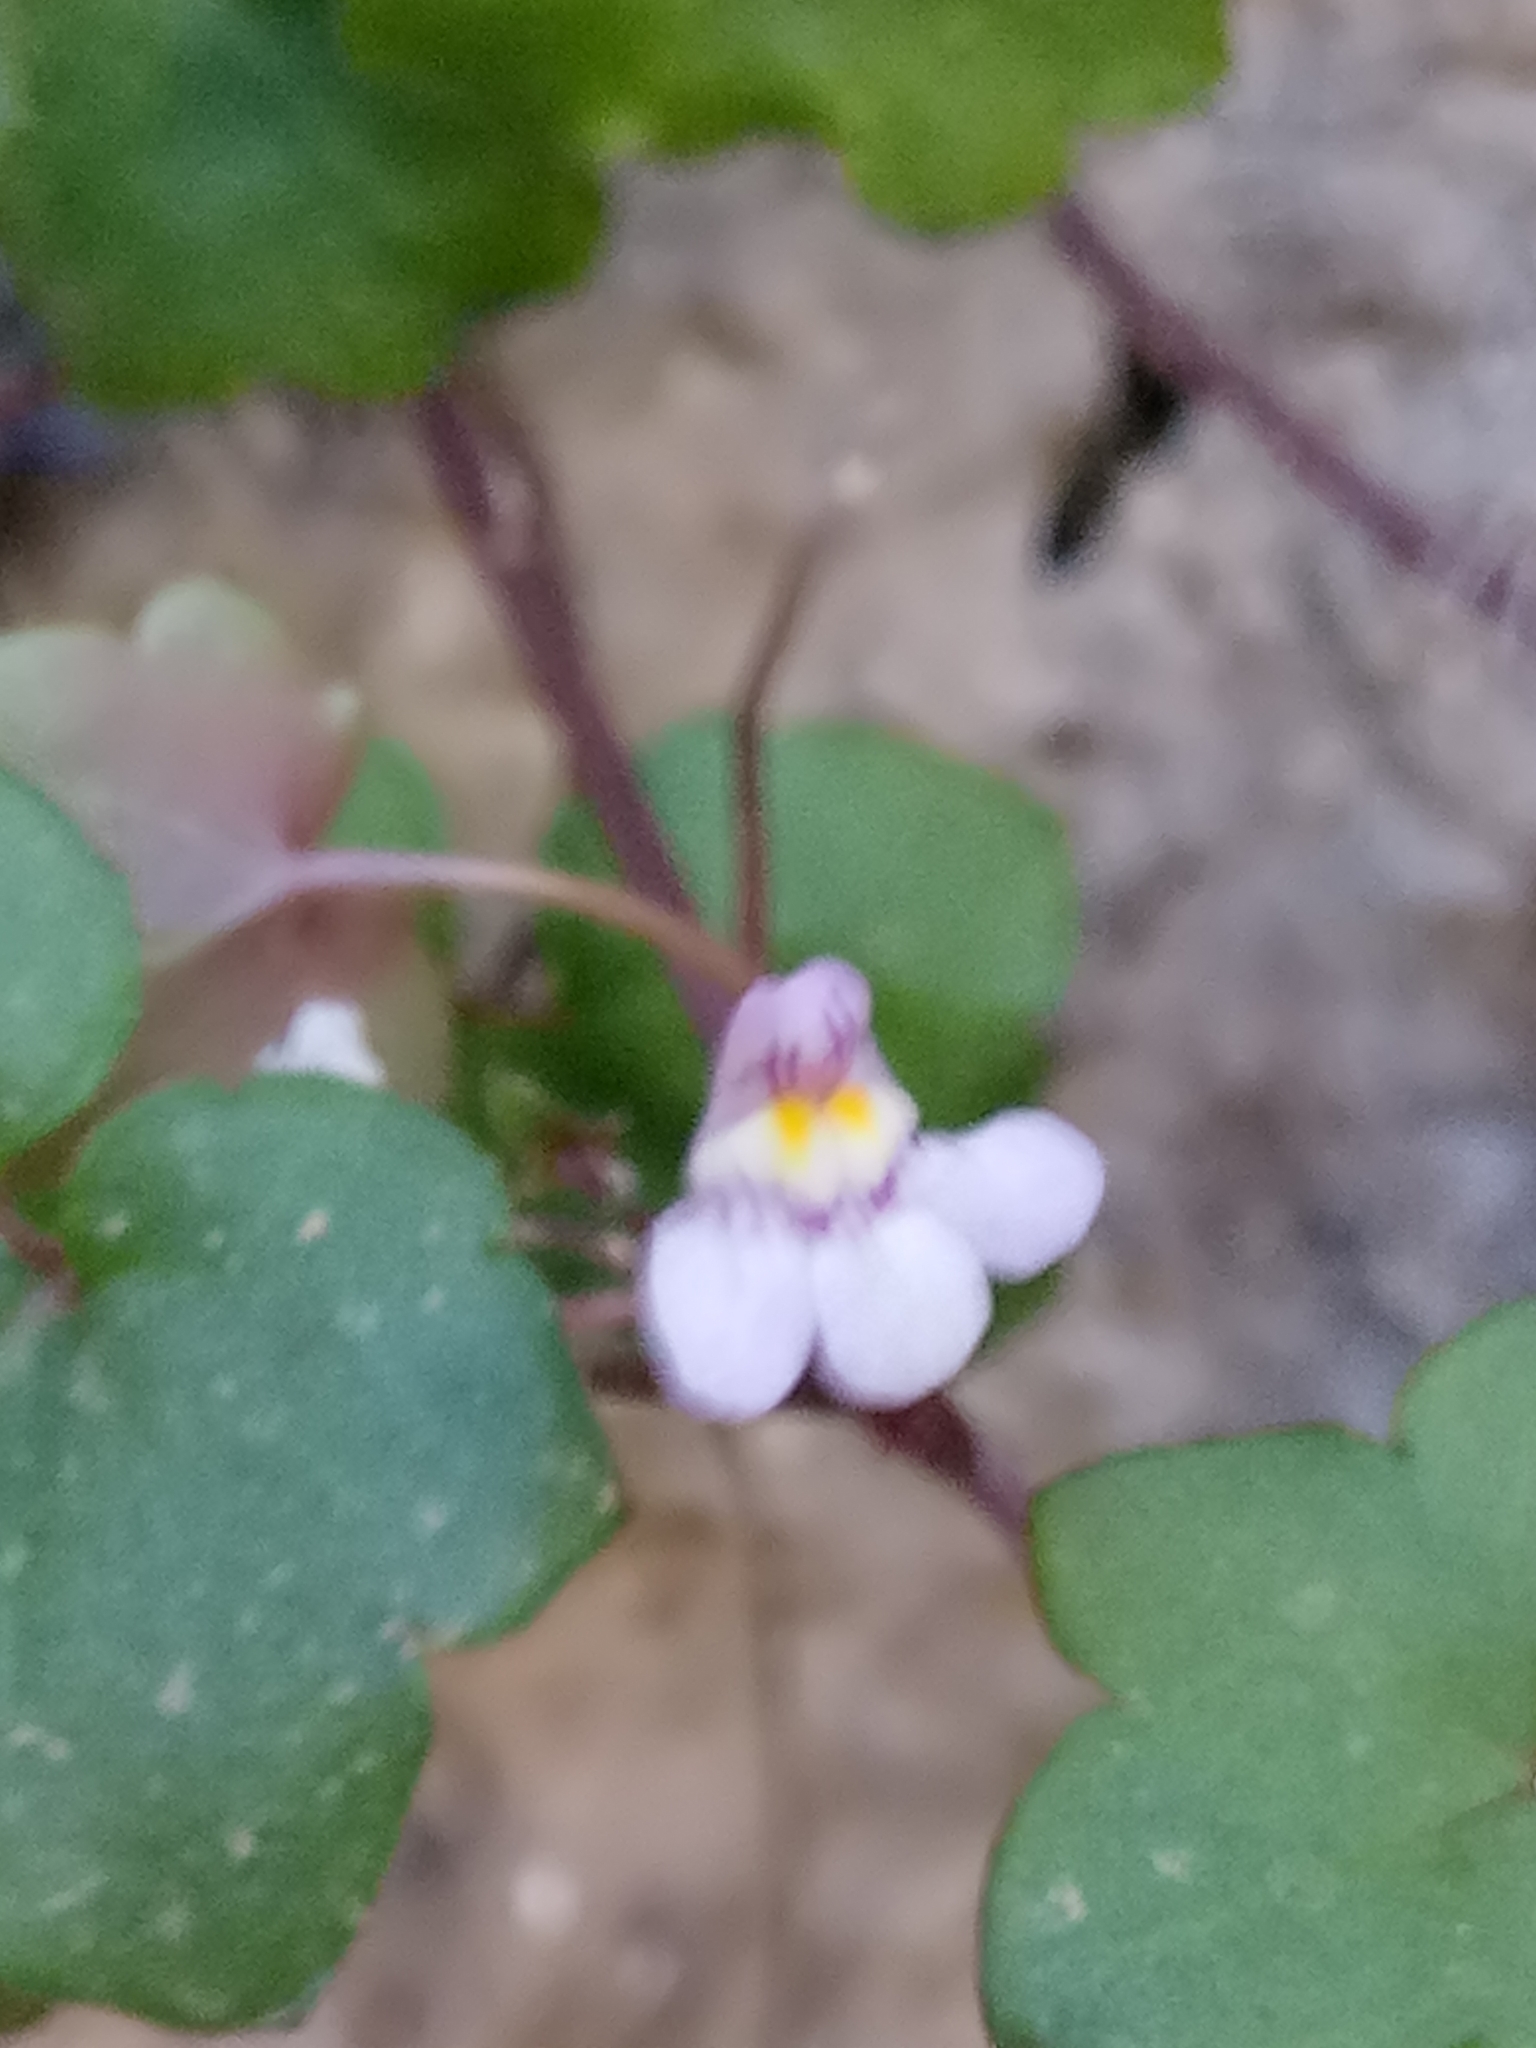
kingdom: Plantae
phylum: Tracheophyta
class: Magnoliopsida
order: Lamiales
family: Plantaginaceae
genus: Cymbalaria
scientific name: Cymbalaria muralis
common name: Ivy-leaved toadflax
